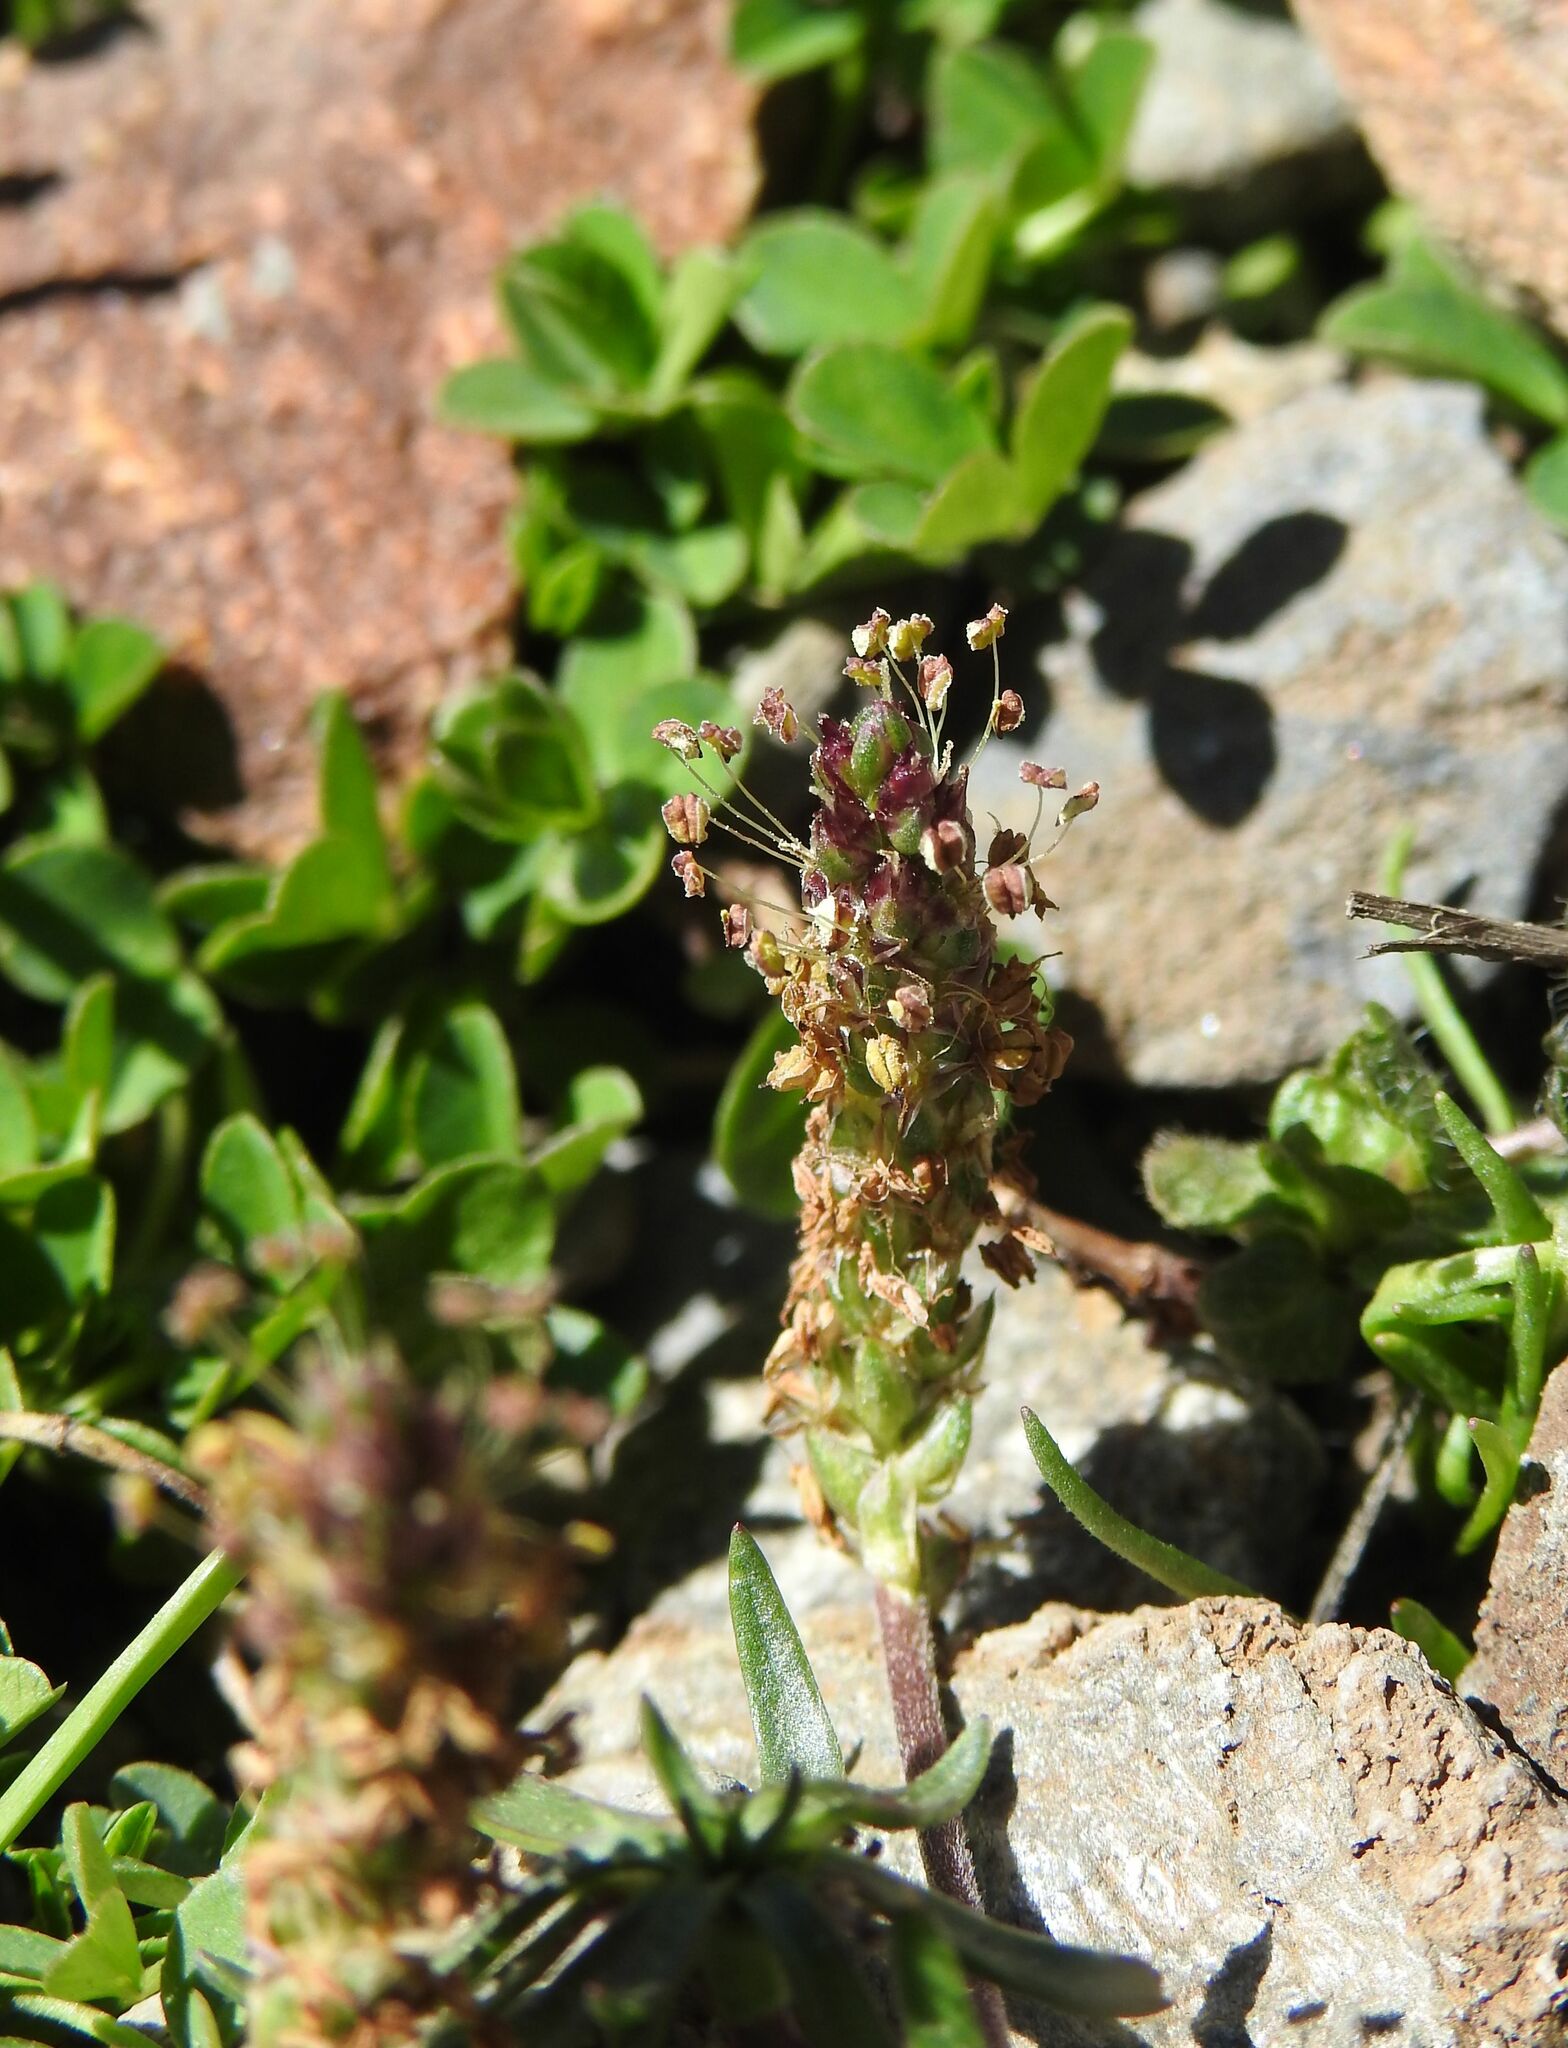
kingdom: Plantae
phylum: Tracheophyta
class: Magnoliopsida
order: Lamiales
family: Plantaginaceae
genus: Plantago
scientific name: Plantago alpina
